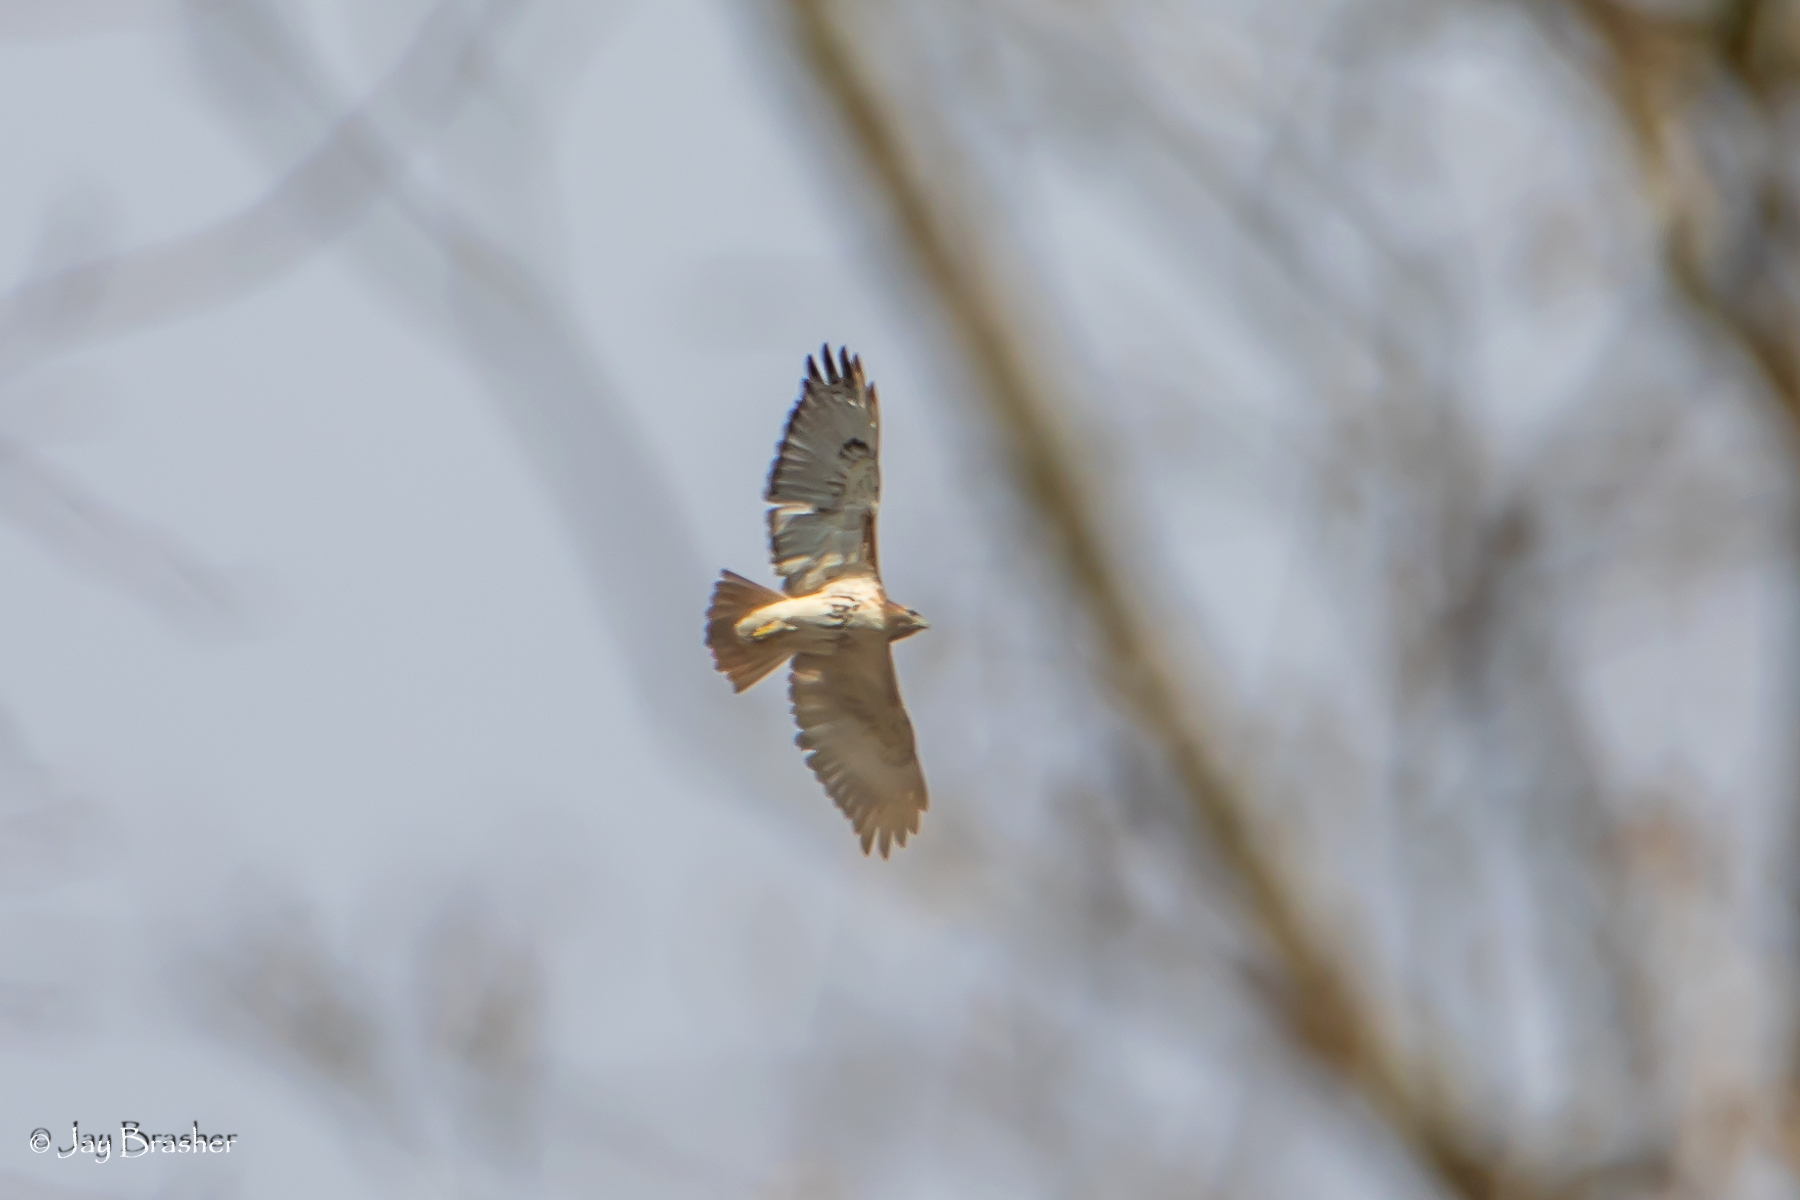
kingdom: Animalia
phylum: Chordata
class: Aves
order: Accipitriformes
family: Accipitridae
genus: Buteo
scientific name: Buteo jamaicensis
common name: Red-tailed hawk
